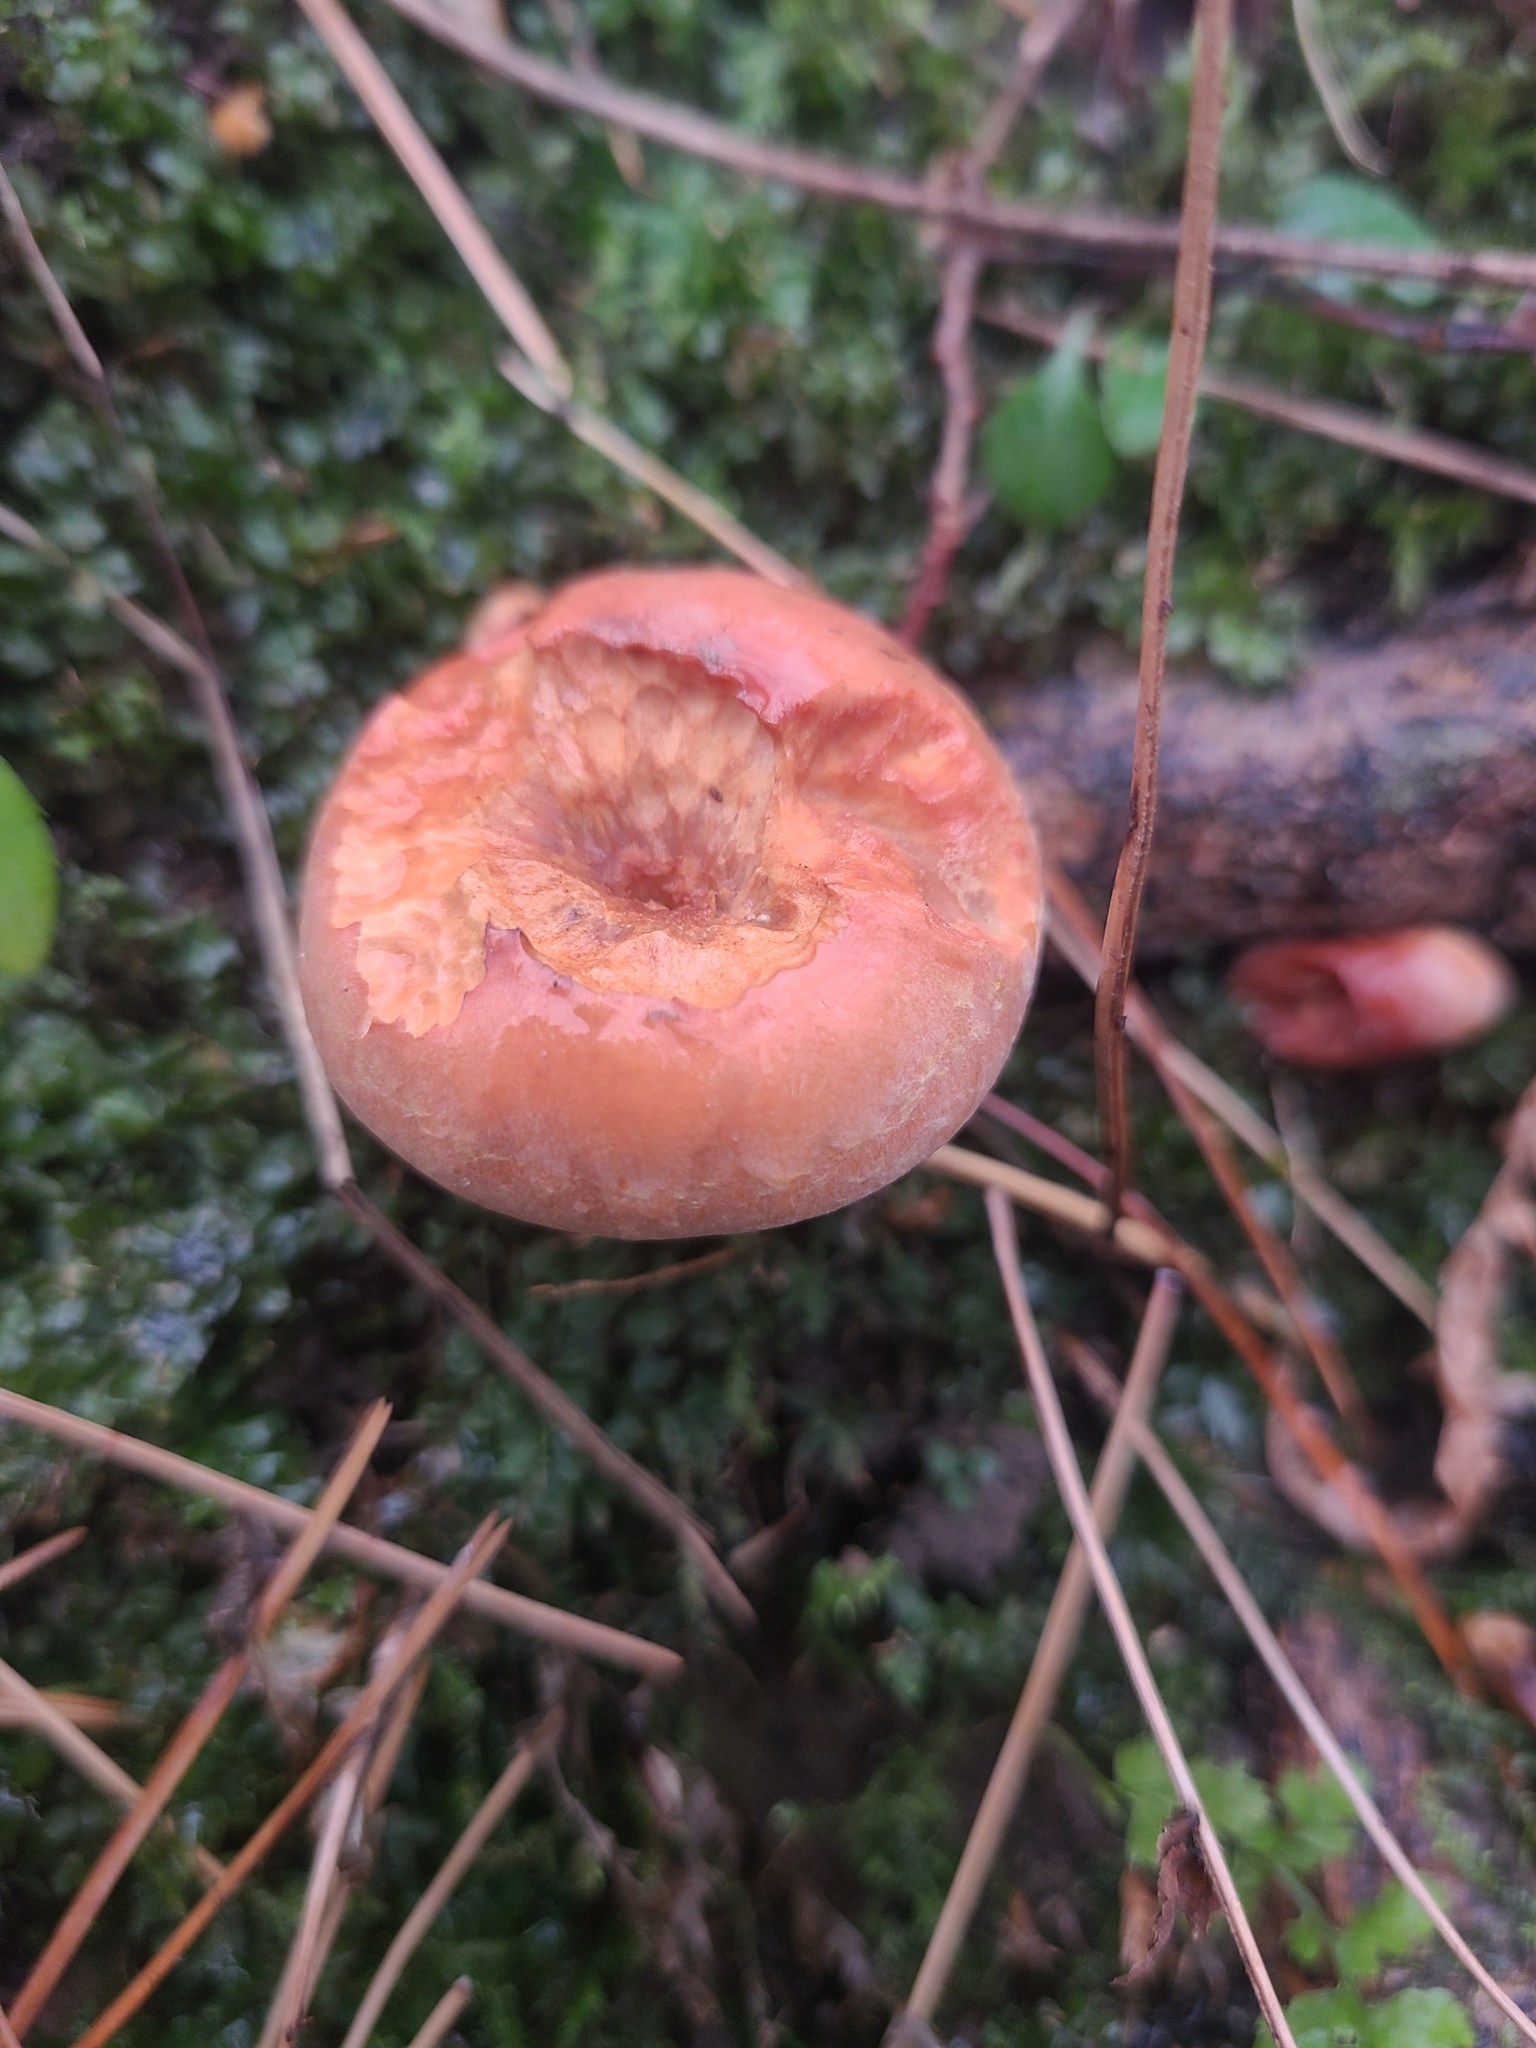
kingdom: Fungi
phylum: Basidiomycota
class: Agaricomycetes
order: Agaricales
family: Strophariaceae
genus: Hypholoma
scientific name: Hypholoma lateritium
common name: Brick caps
